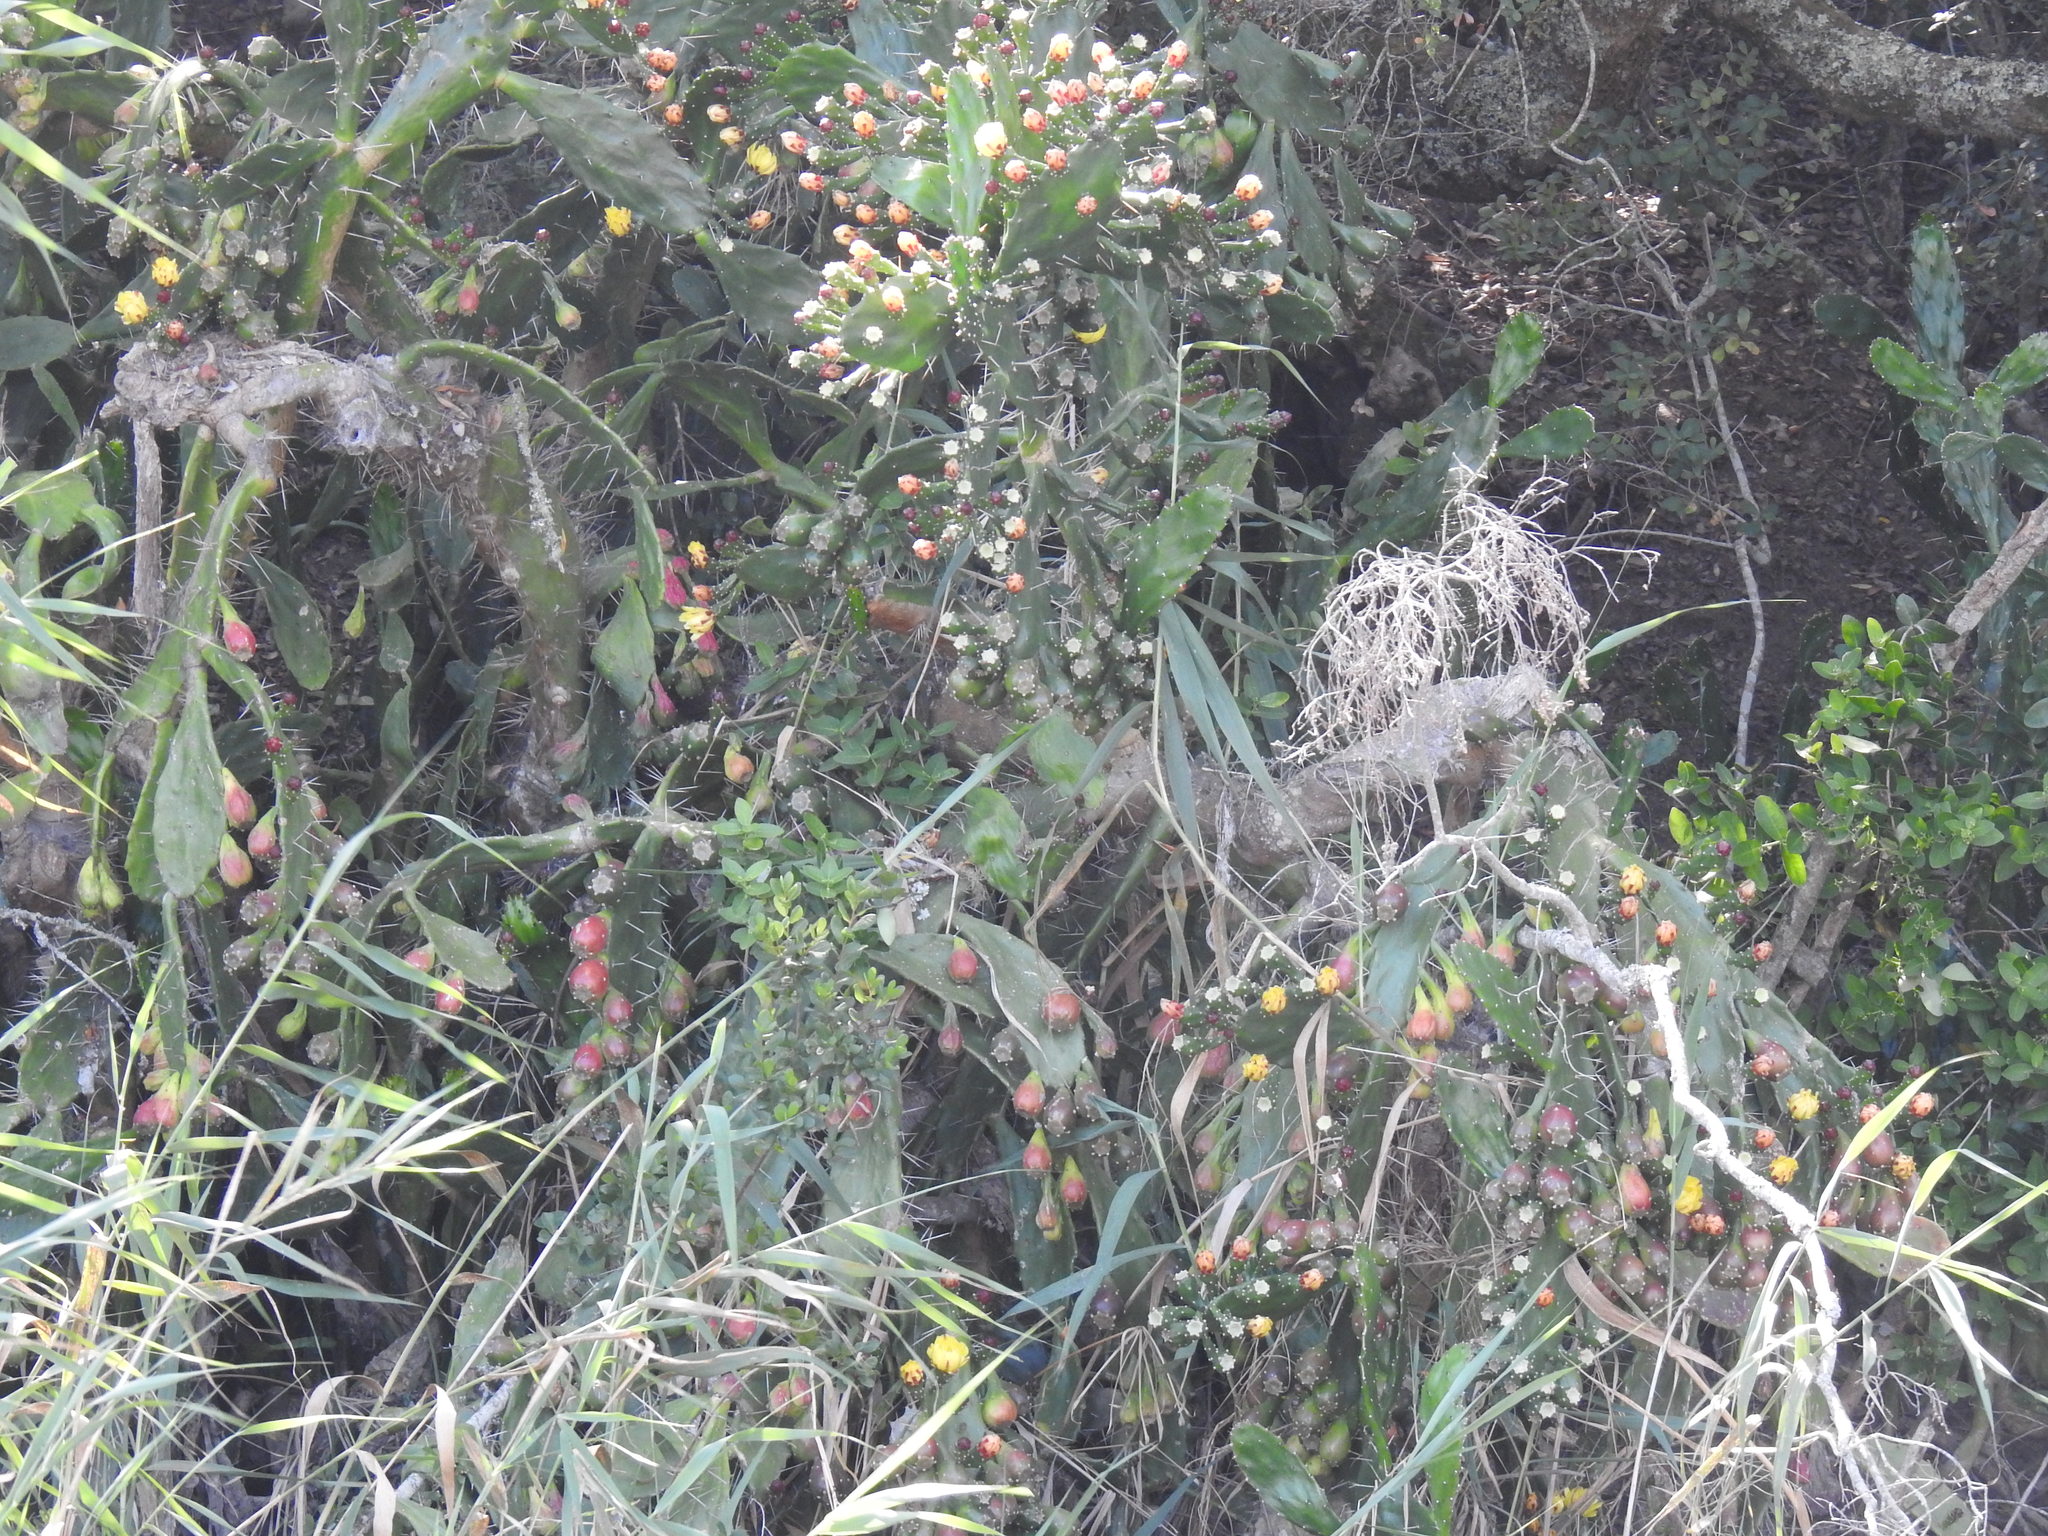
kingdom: Plantae
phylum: Tracheophyta
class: Magnoliopsida
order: Caryophyllales
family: Cactaceae
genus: Opuntia
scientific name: Opuntia monacantha
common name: Common pricklypear
